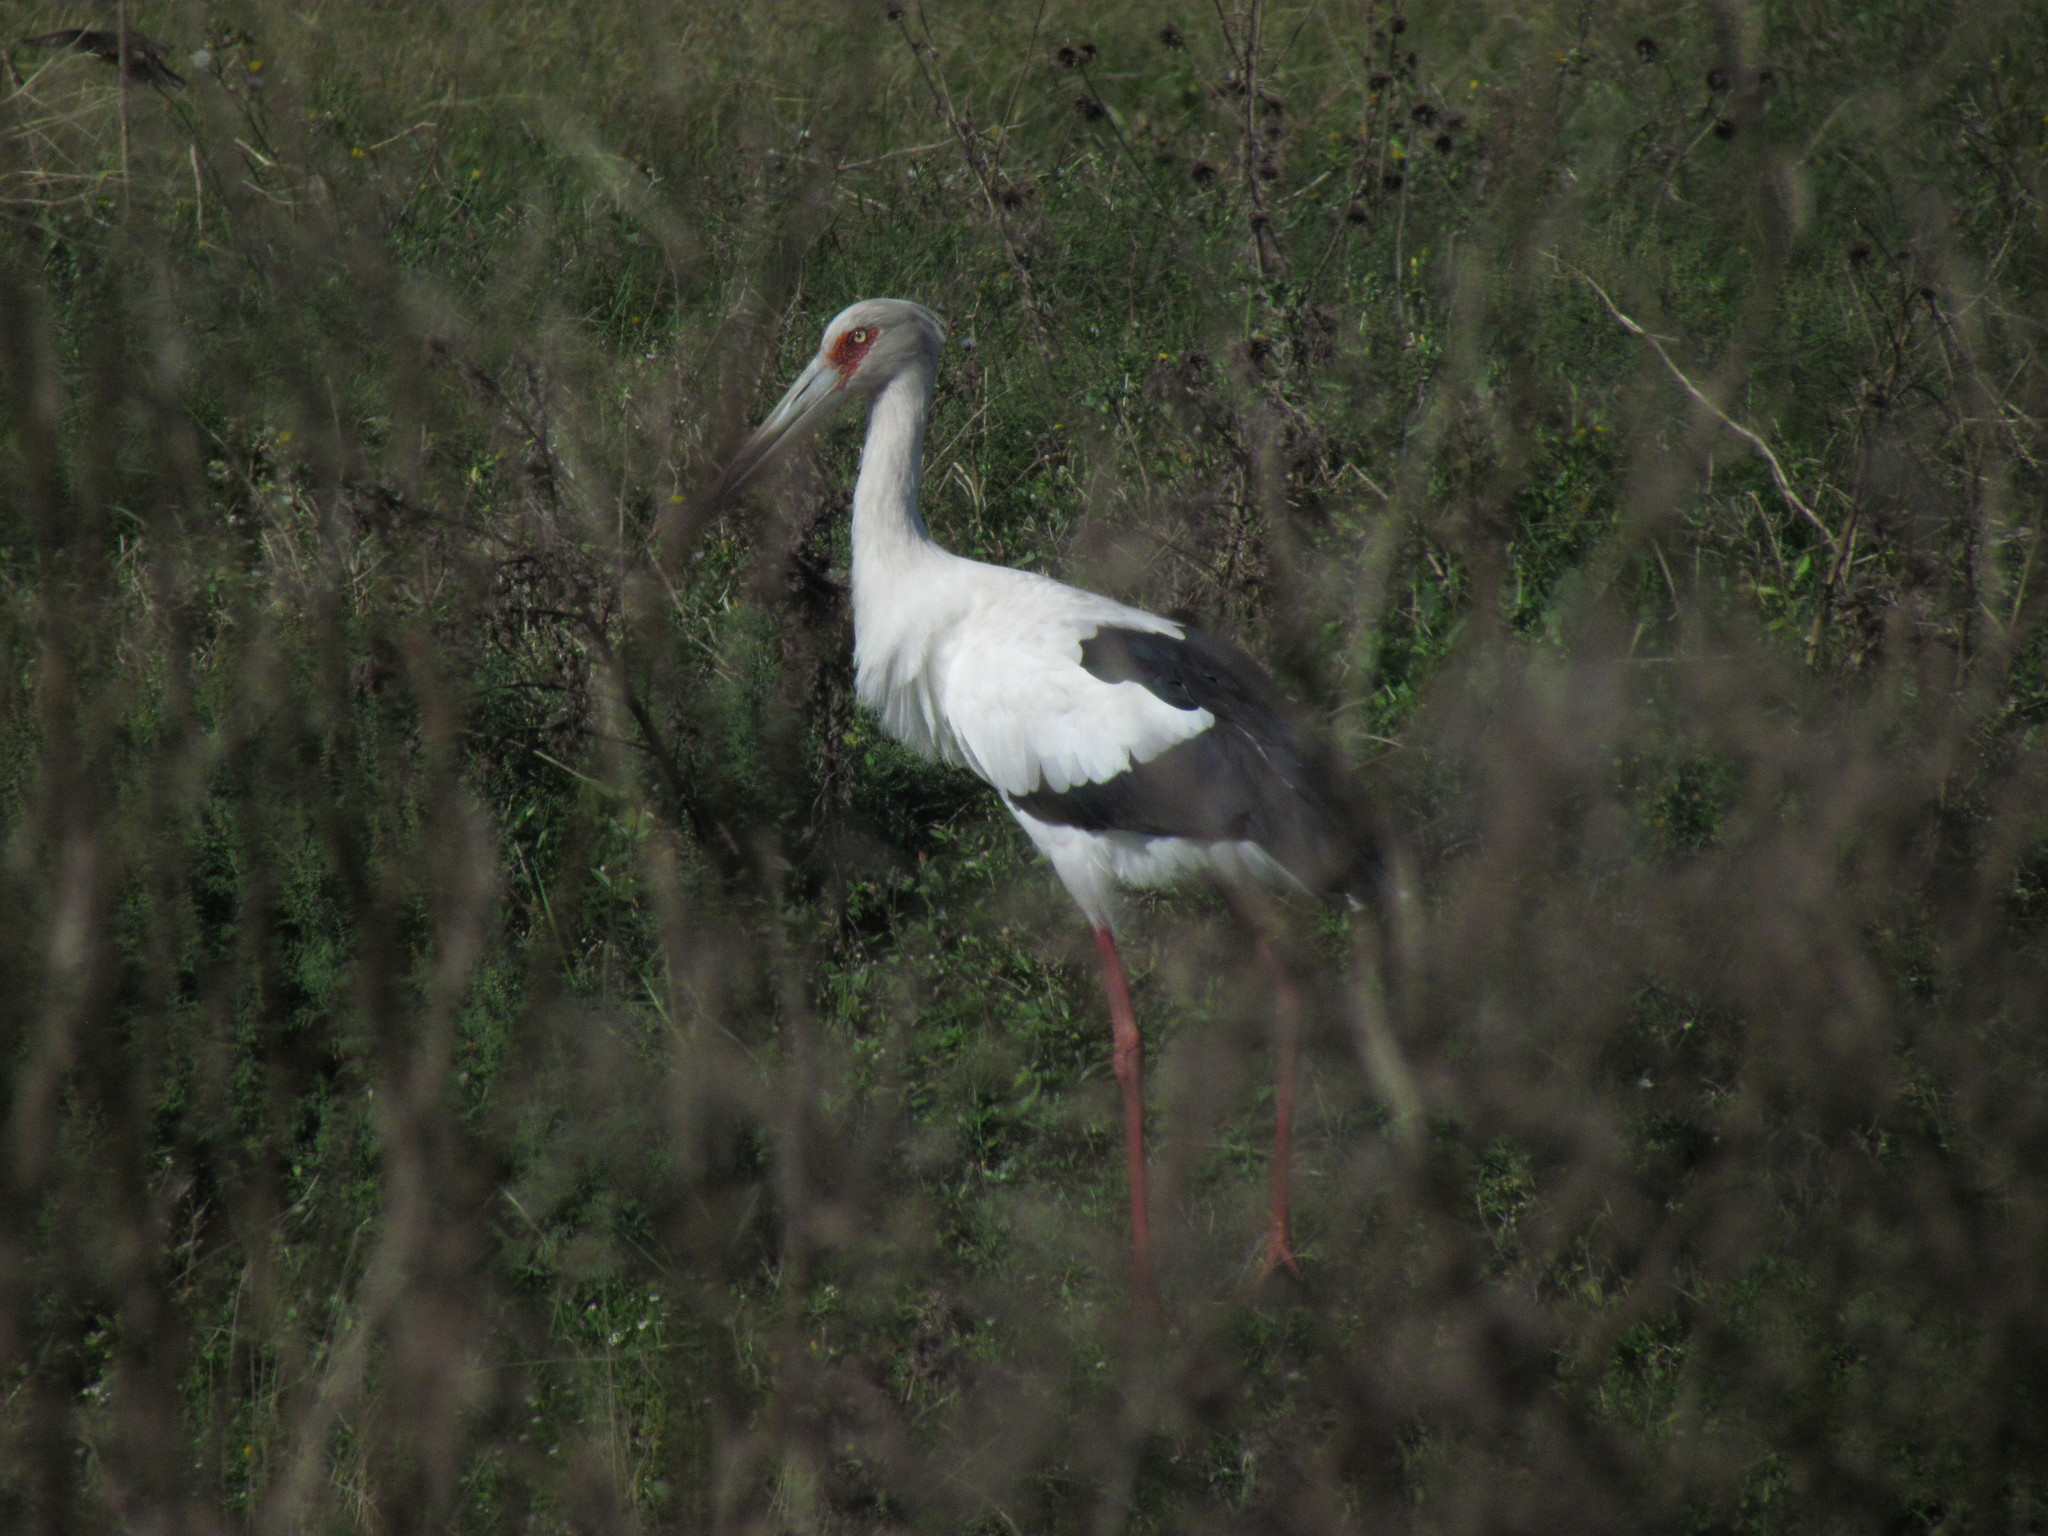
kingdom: Animalia
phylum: Chordata
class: Aves
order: Ciconiiformes
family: Ciconiidae
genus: Ciconia
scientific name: Ciconia maguari
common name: Maguari stork
